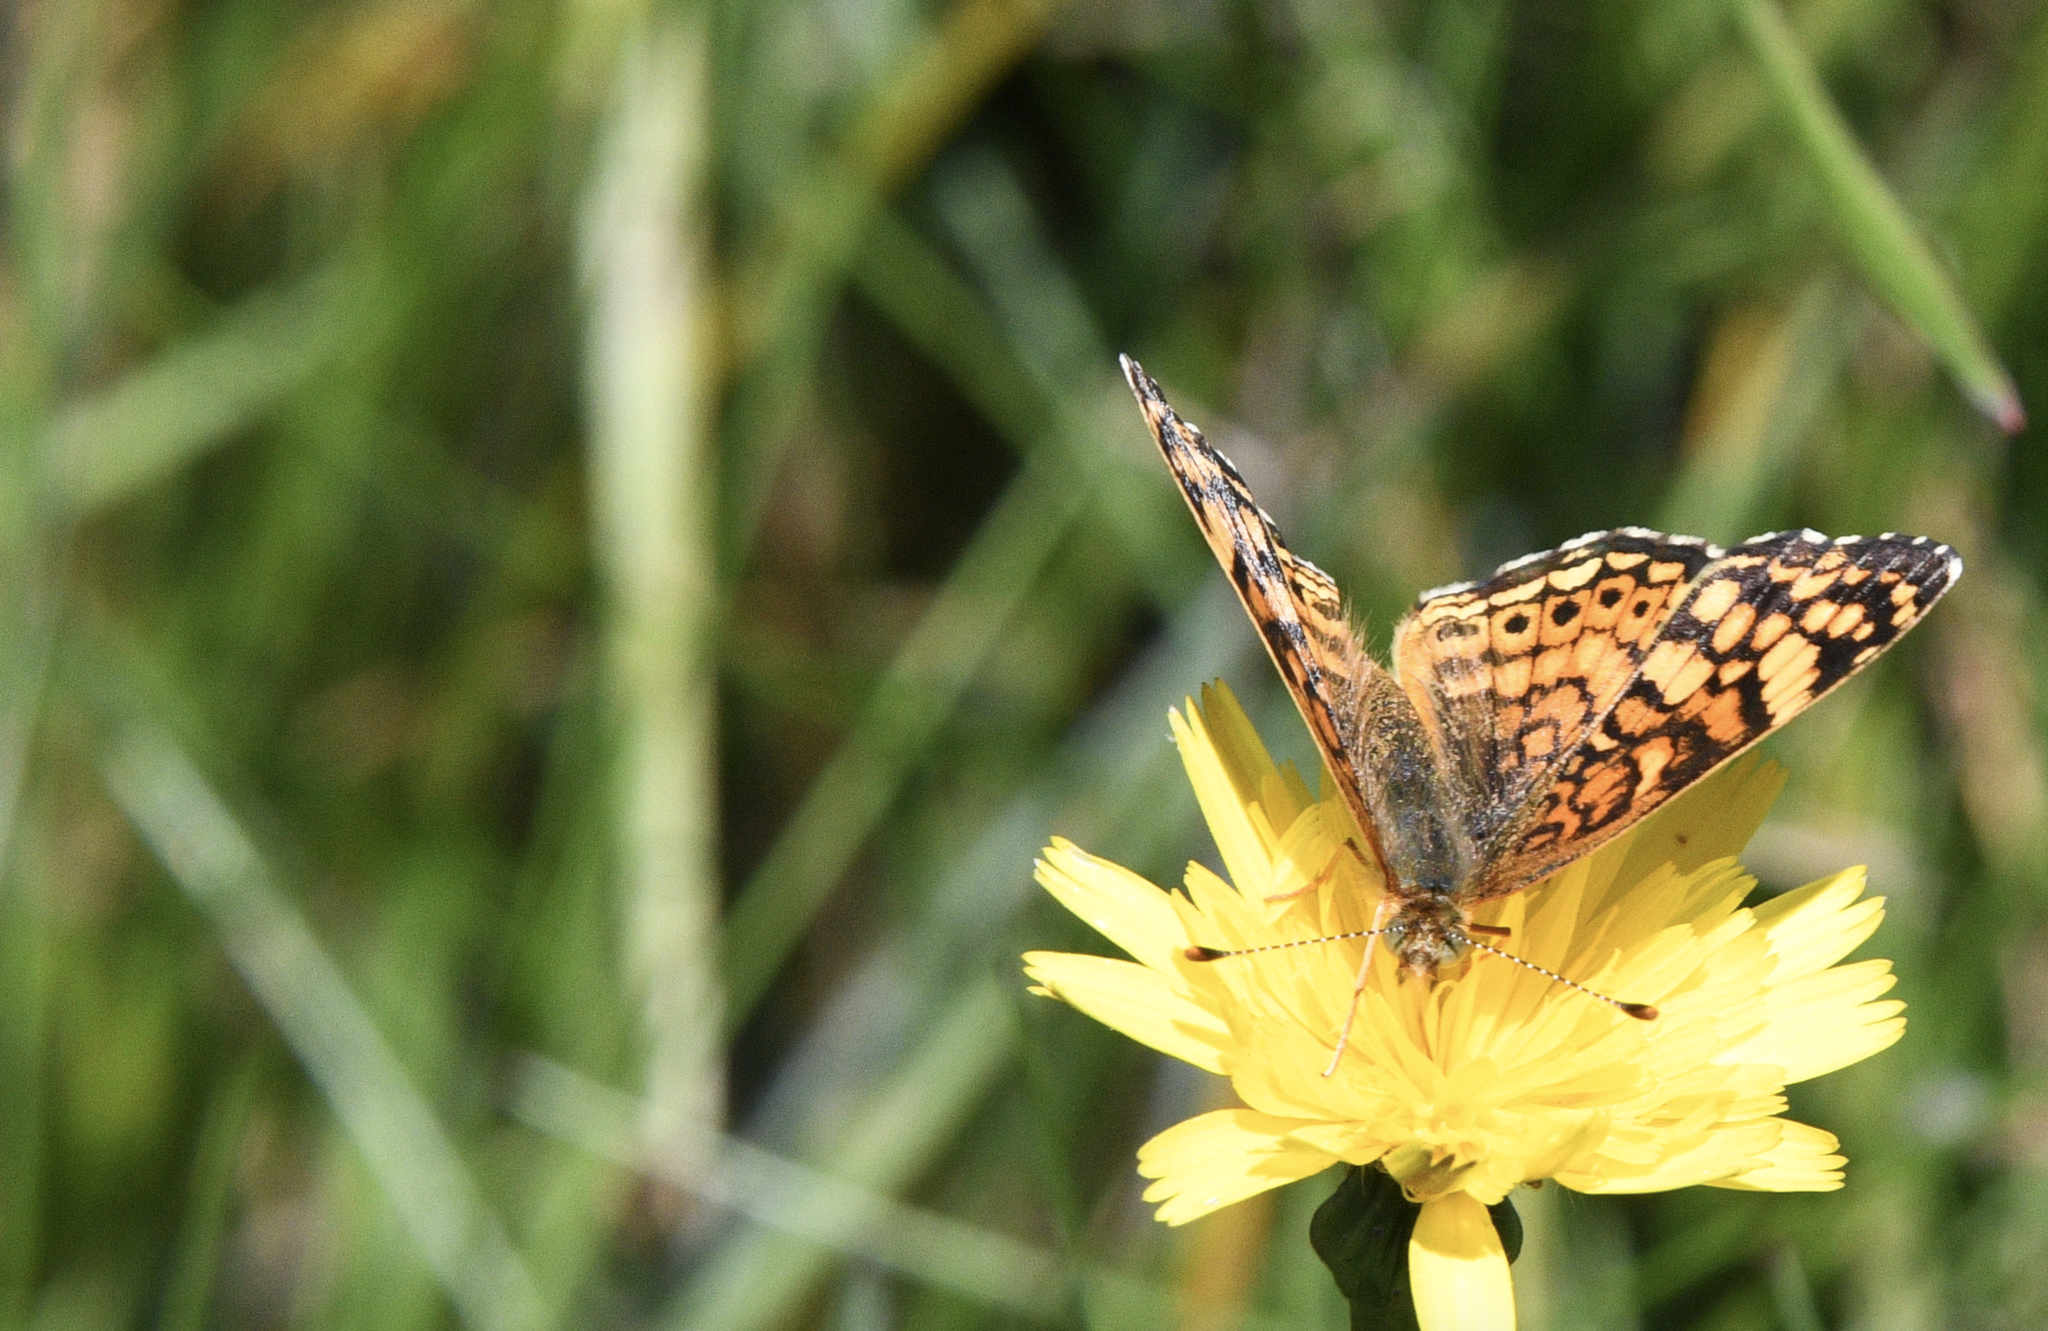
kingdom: Animalia
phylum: Arthropoda
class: Insecta
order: Lepidoptera
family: Nymphalidae
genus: Eresia
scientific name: Eresia aveyrona
